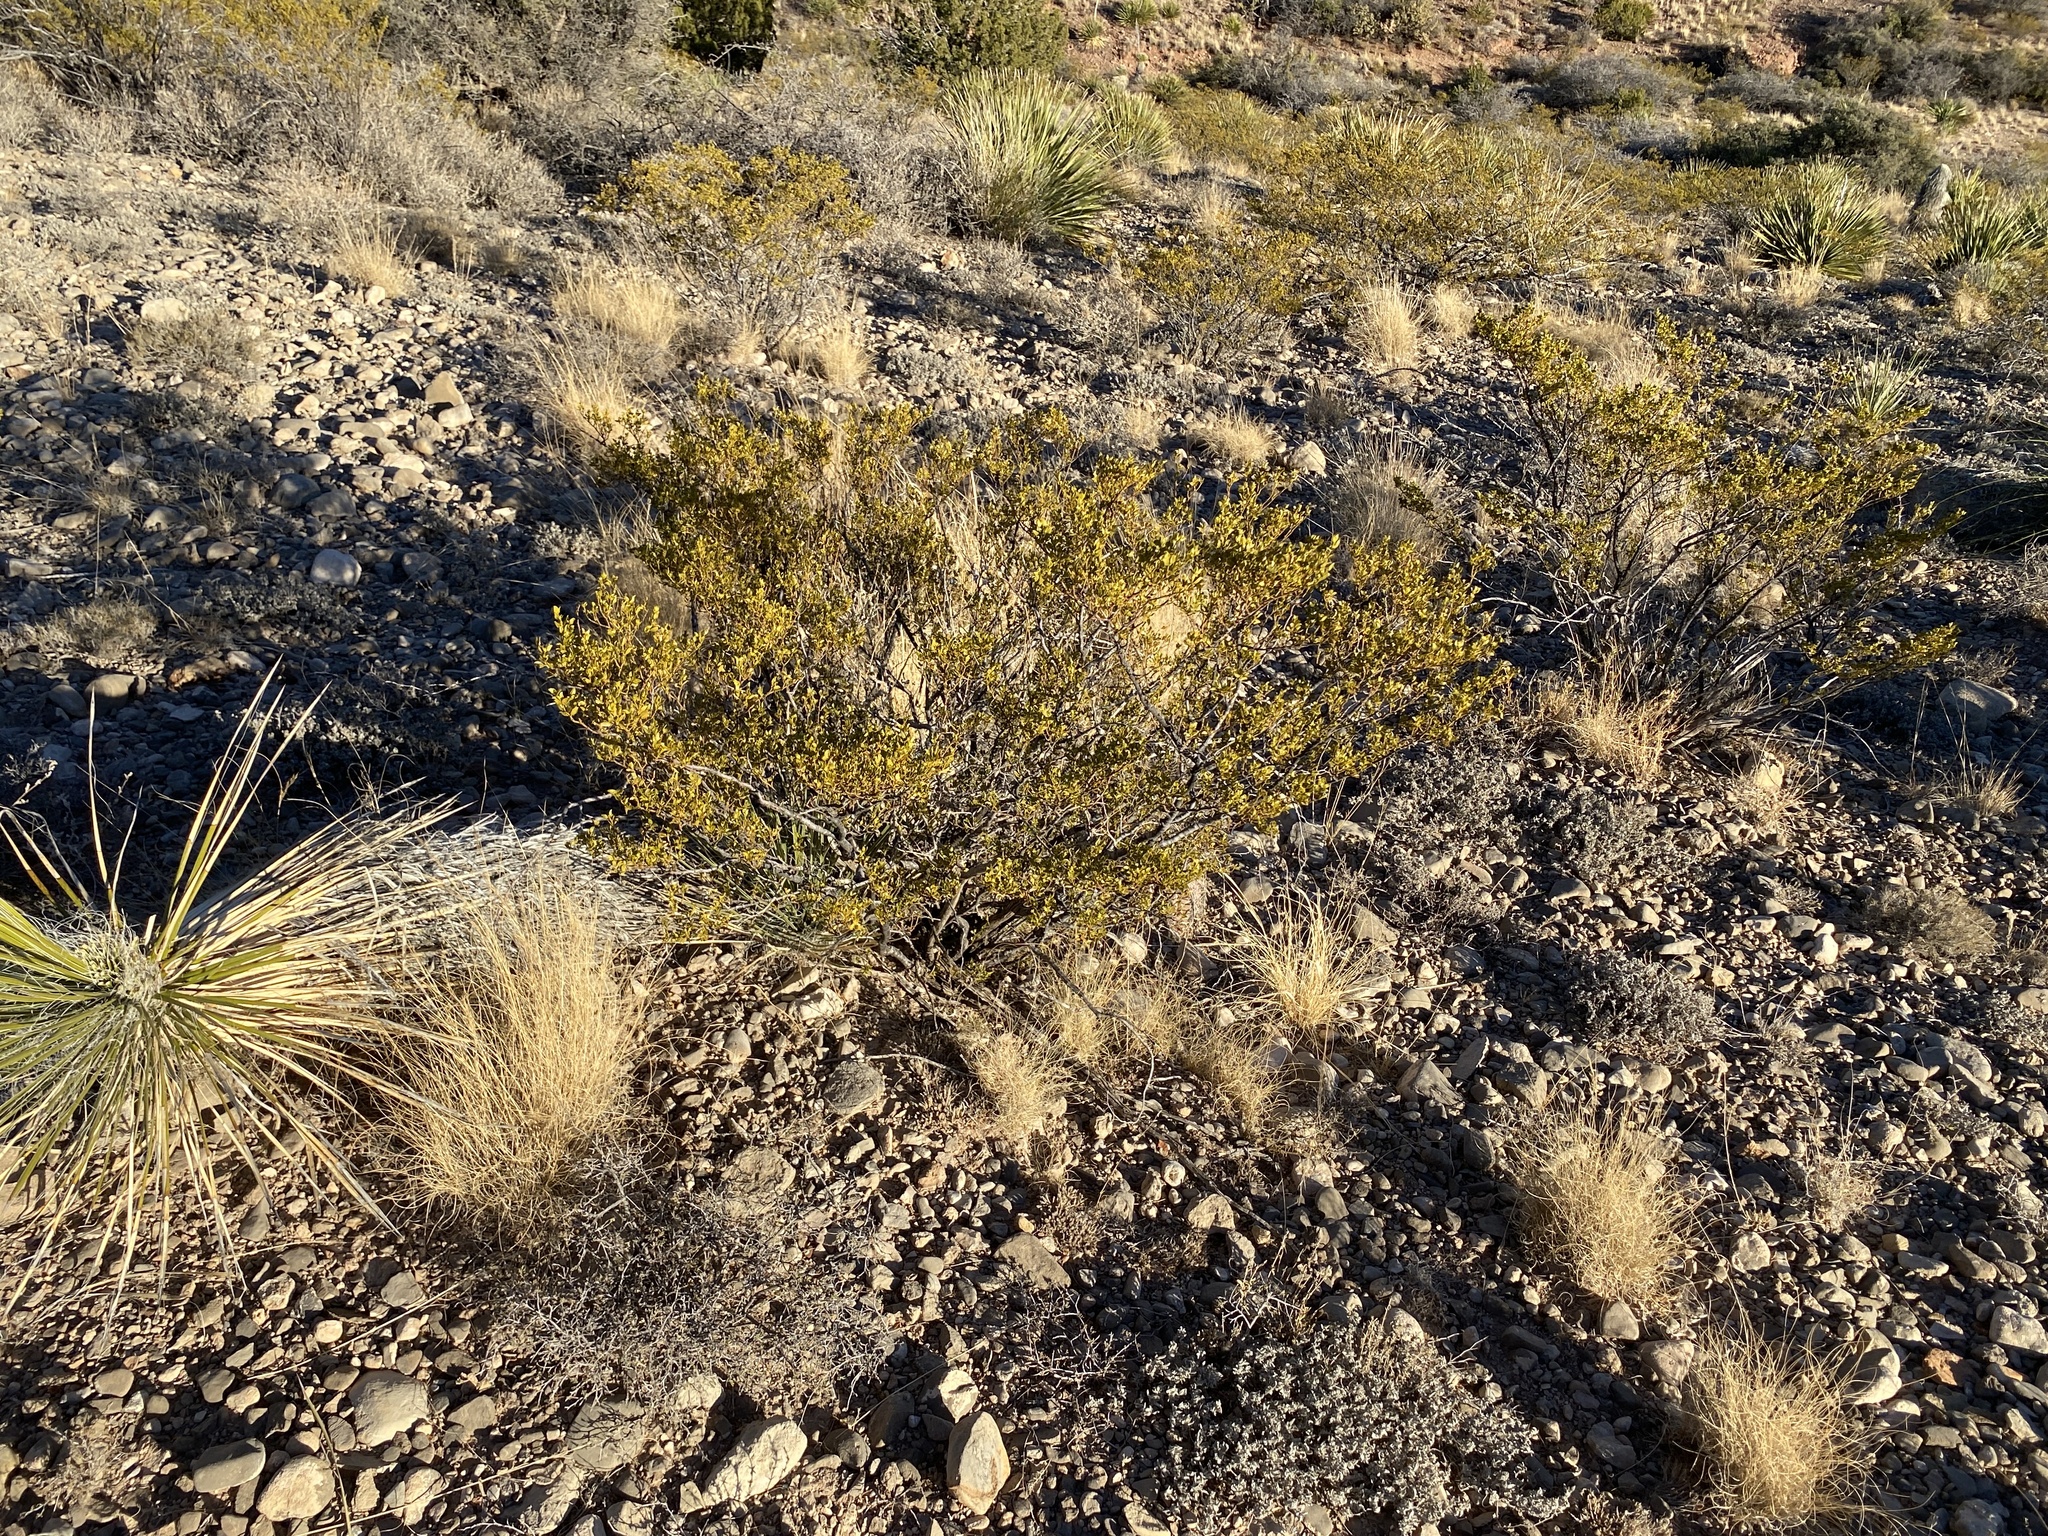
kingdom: Plantae
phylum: Tracheophyta
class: Magnoliopsida
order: Zygophyllales
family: Zygophyllaceae
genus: Larrea
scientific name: Larrea tridentata
